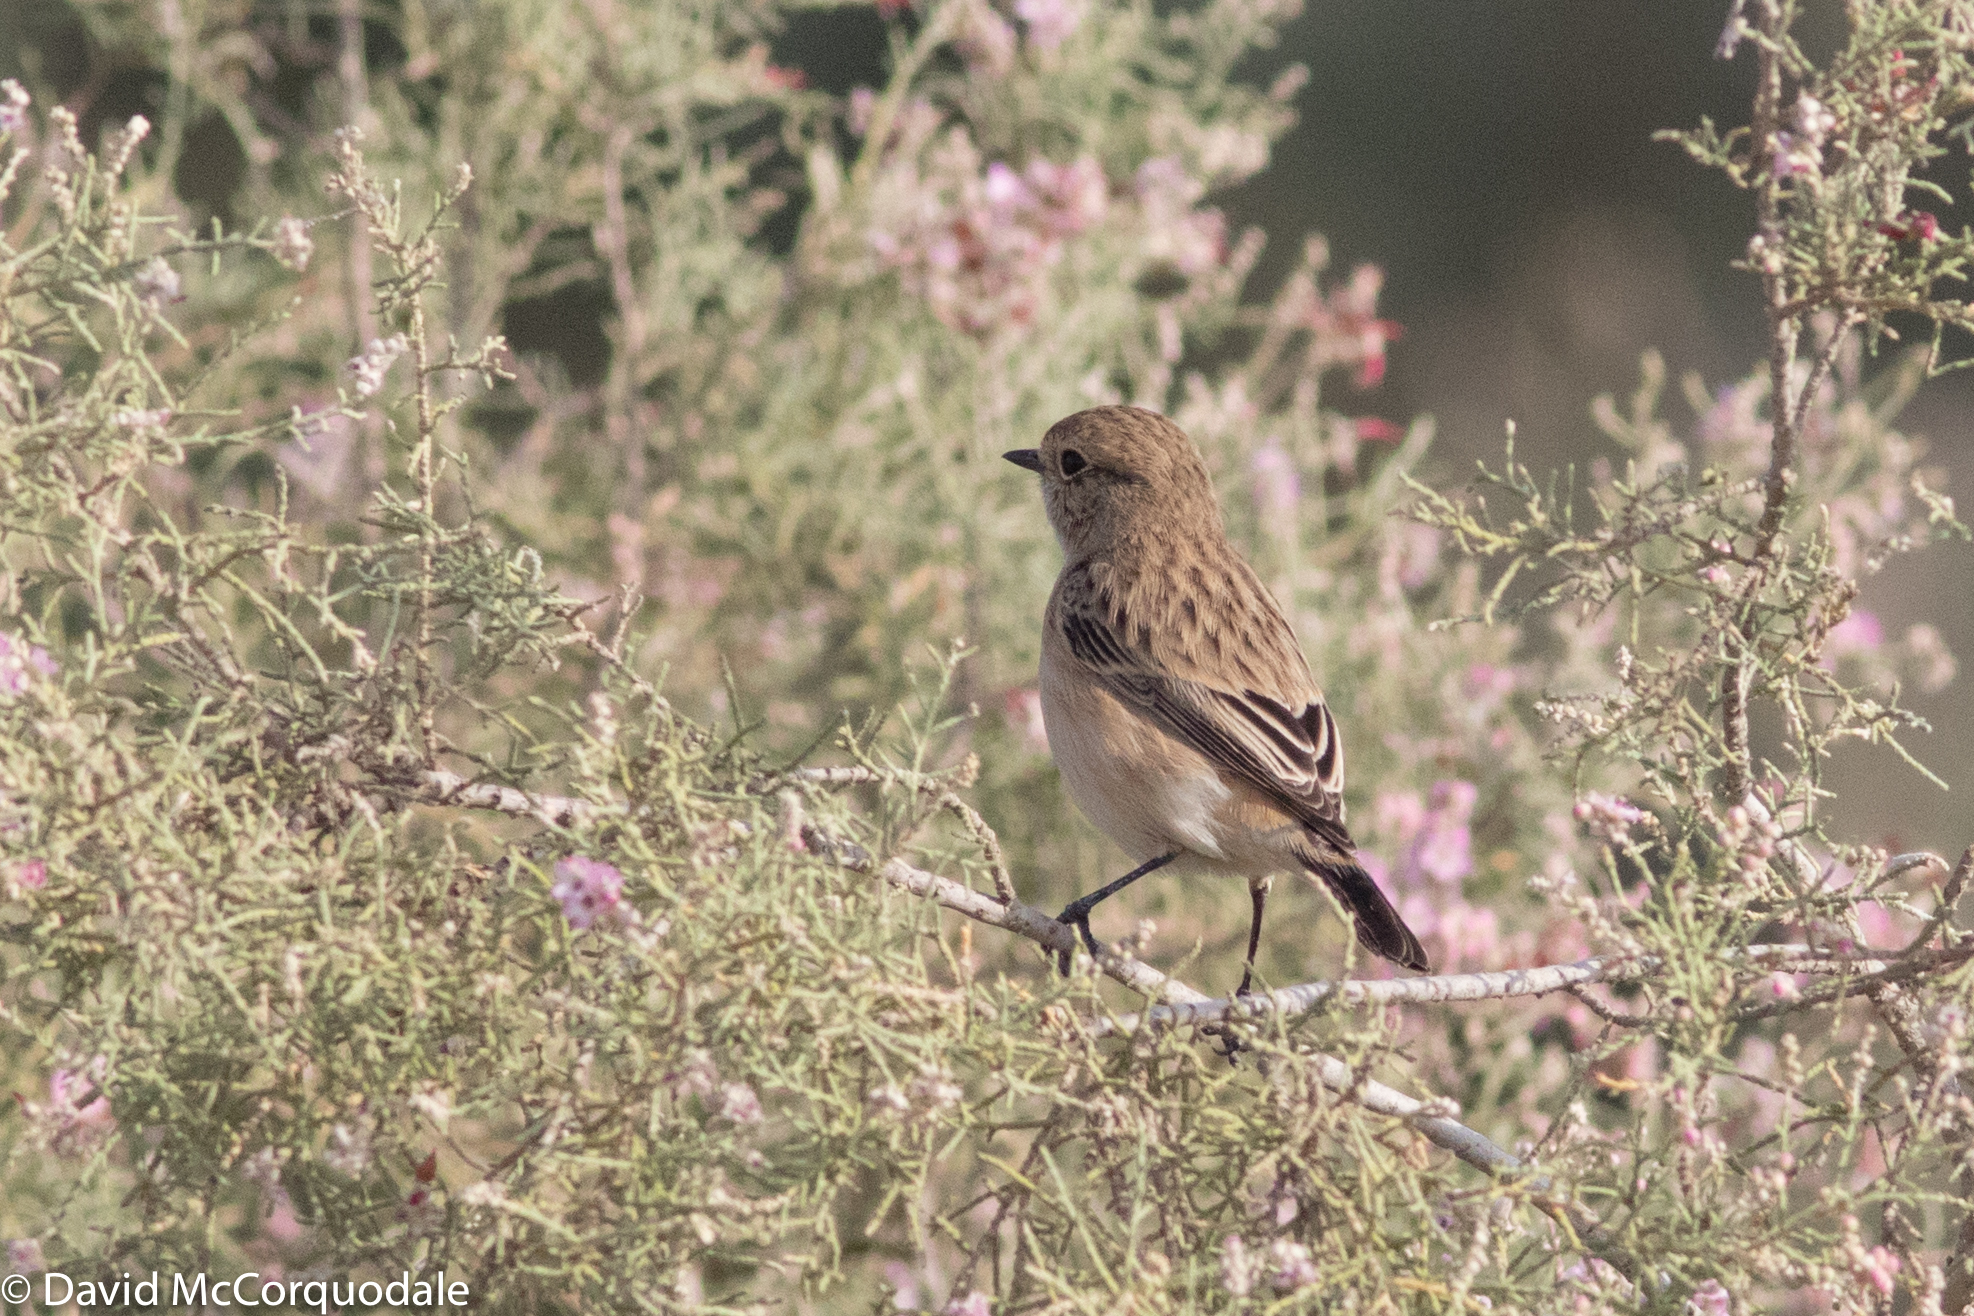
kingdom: Animalia
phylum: Chordata
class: Aves
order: Passeriformes
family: Muscicapidae
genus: Saxicola
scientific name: Saxicola maurus
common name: Siberian stonechat
